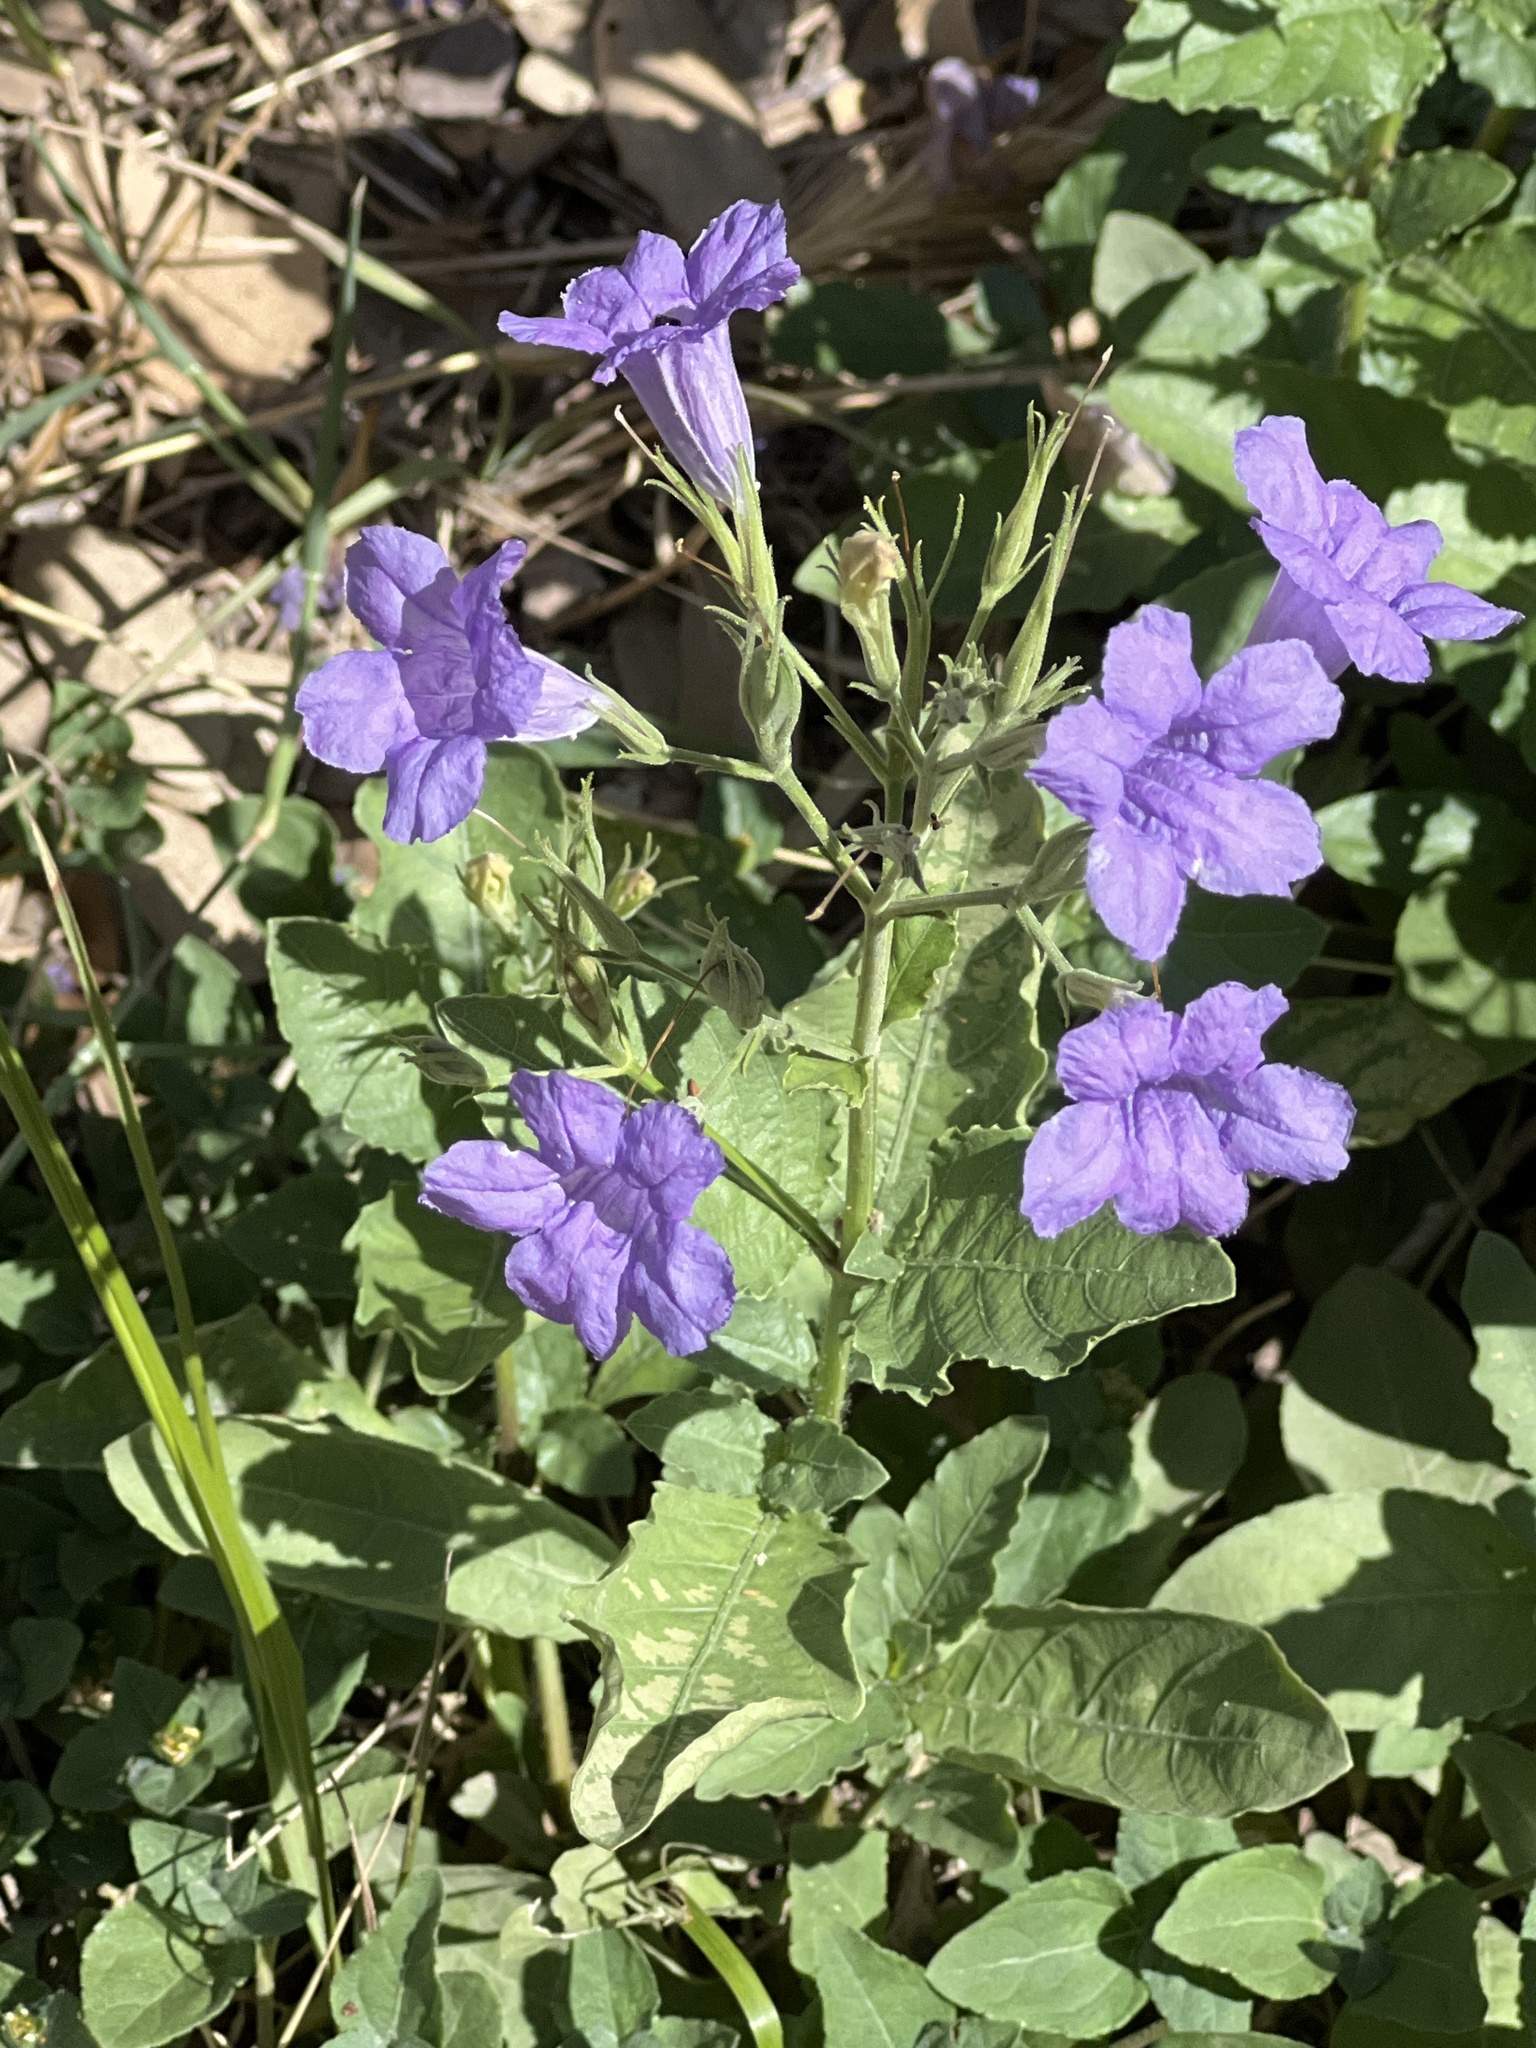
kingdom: Plantae
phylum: Tracheophyta
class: Magnoliopsida
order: Lamiales
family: Acanthaceae
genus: Ruellia
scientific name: Ruellia ciliatiflora
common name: Hairyflower wild petunia
